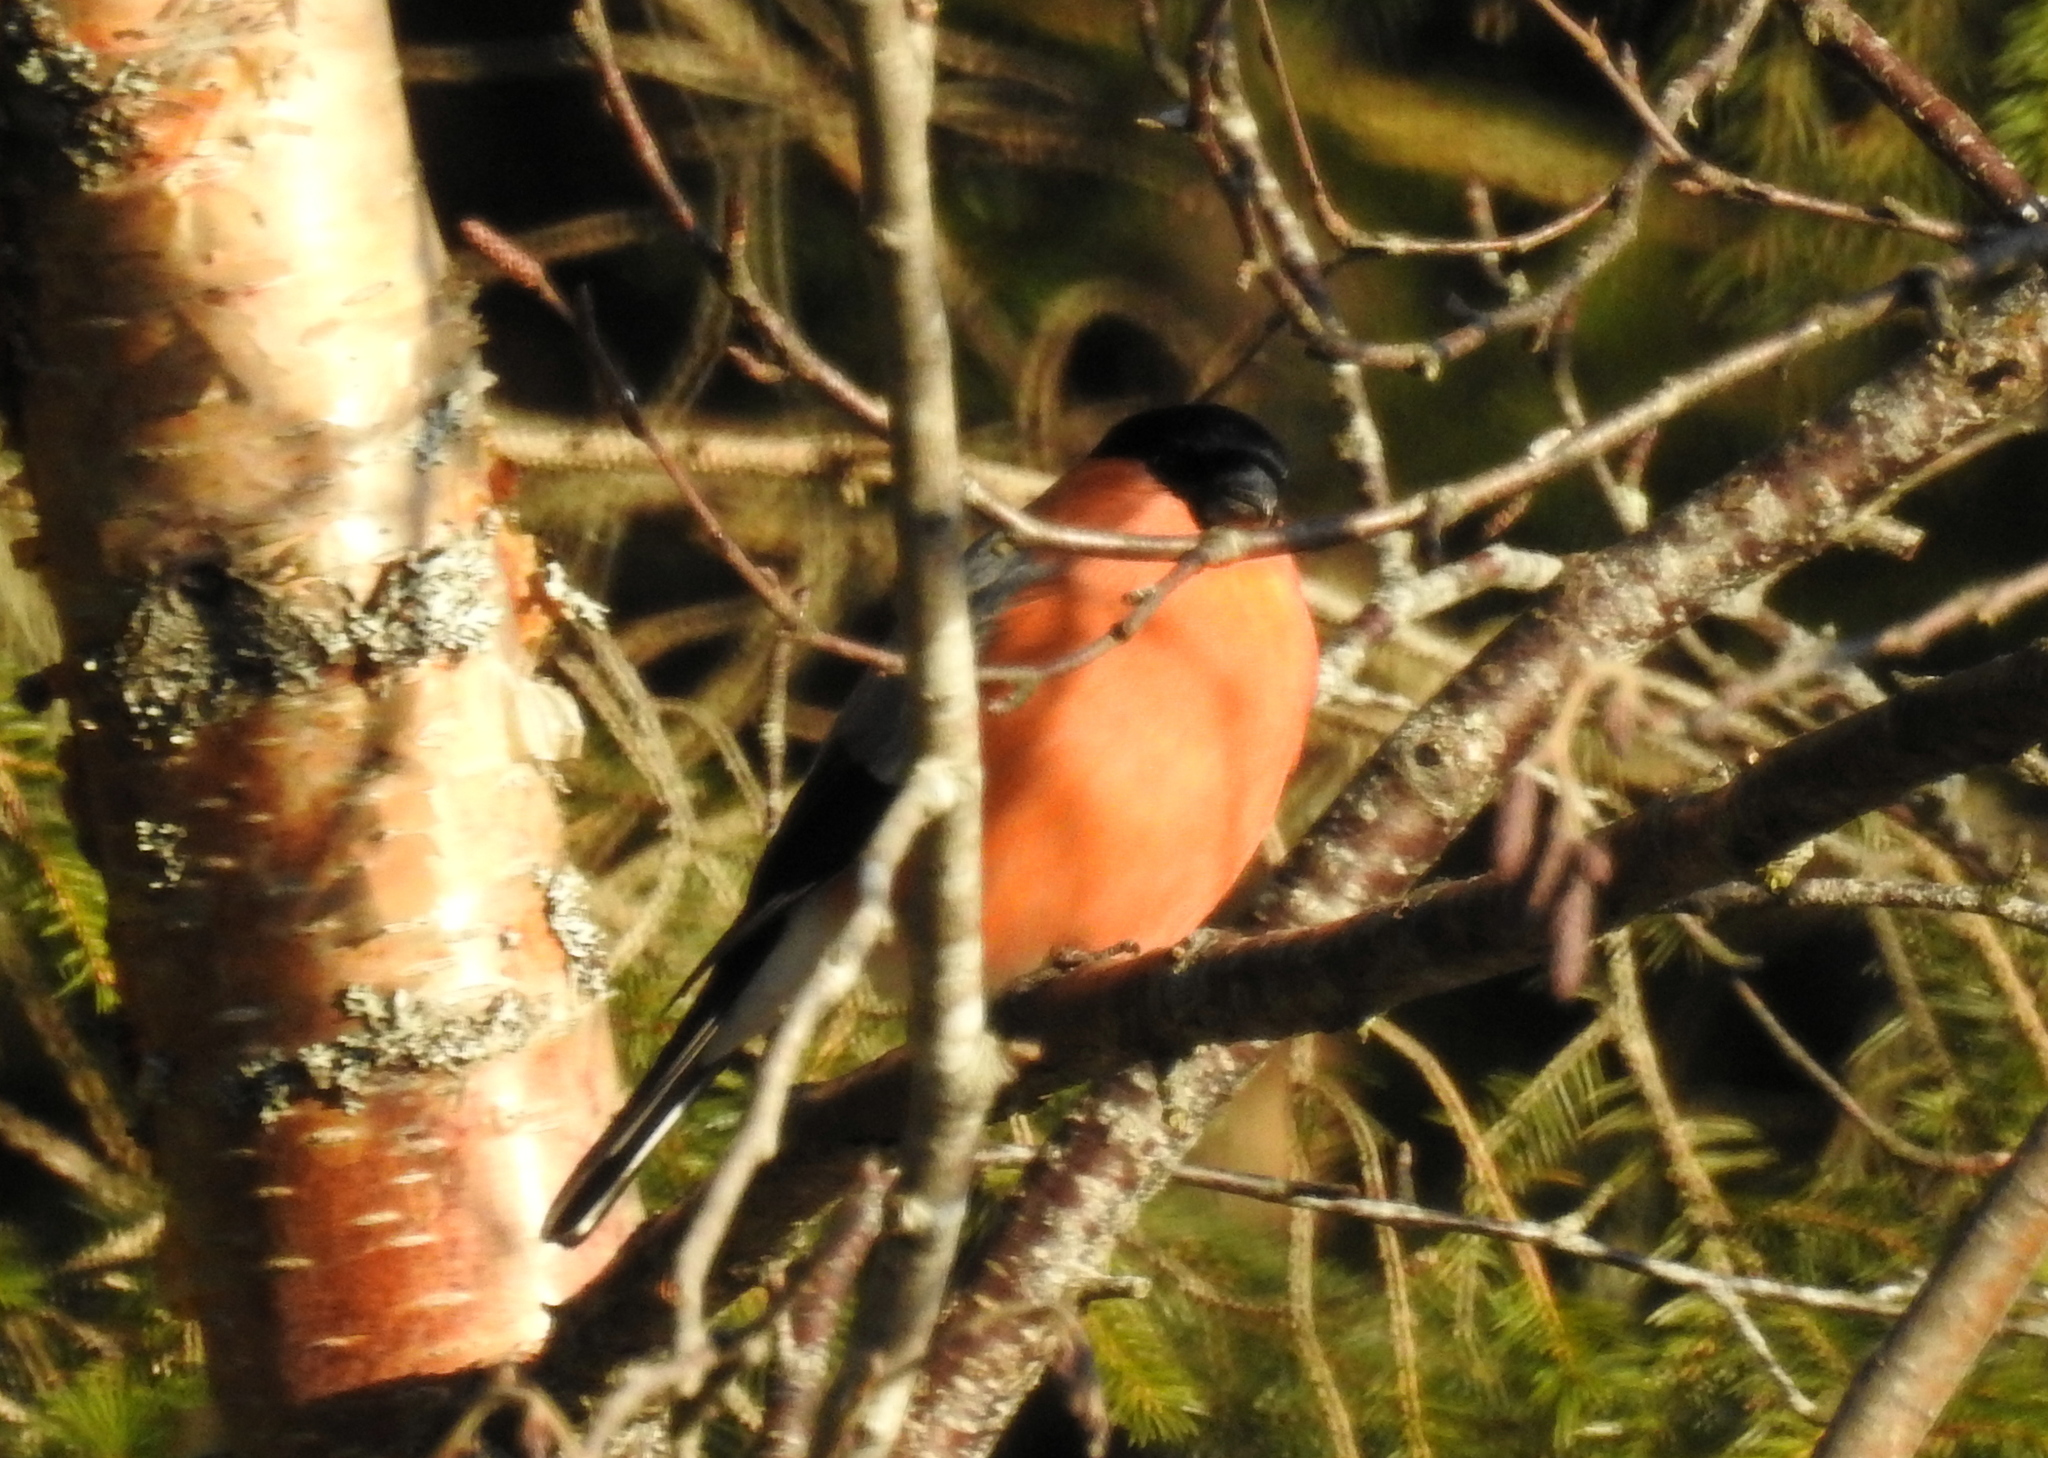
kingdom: Animalia
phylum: Chordata
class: Aves
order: Passeriformes
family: Fringillidae
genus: Pyrrhula
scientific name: Pyrrhula pyrrhula
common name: Eurasian bullfinch
